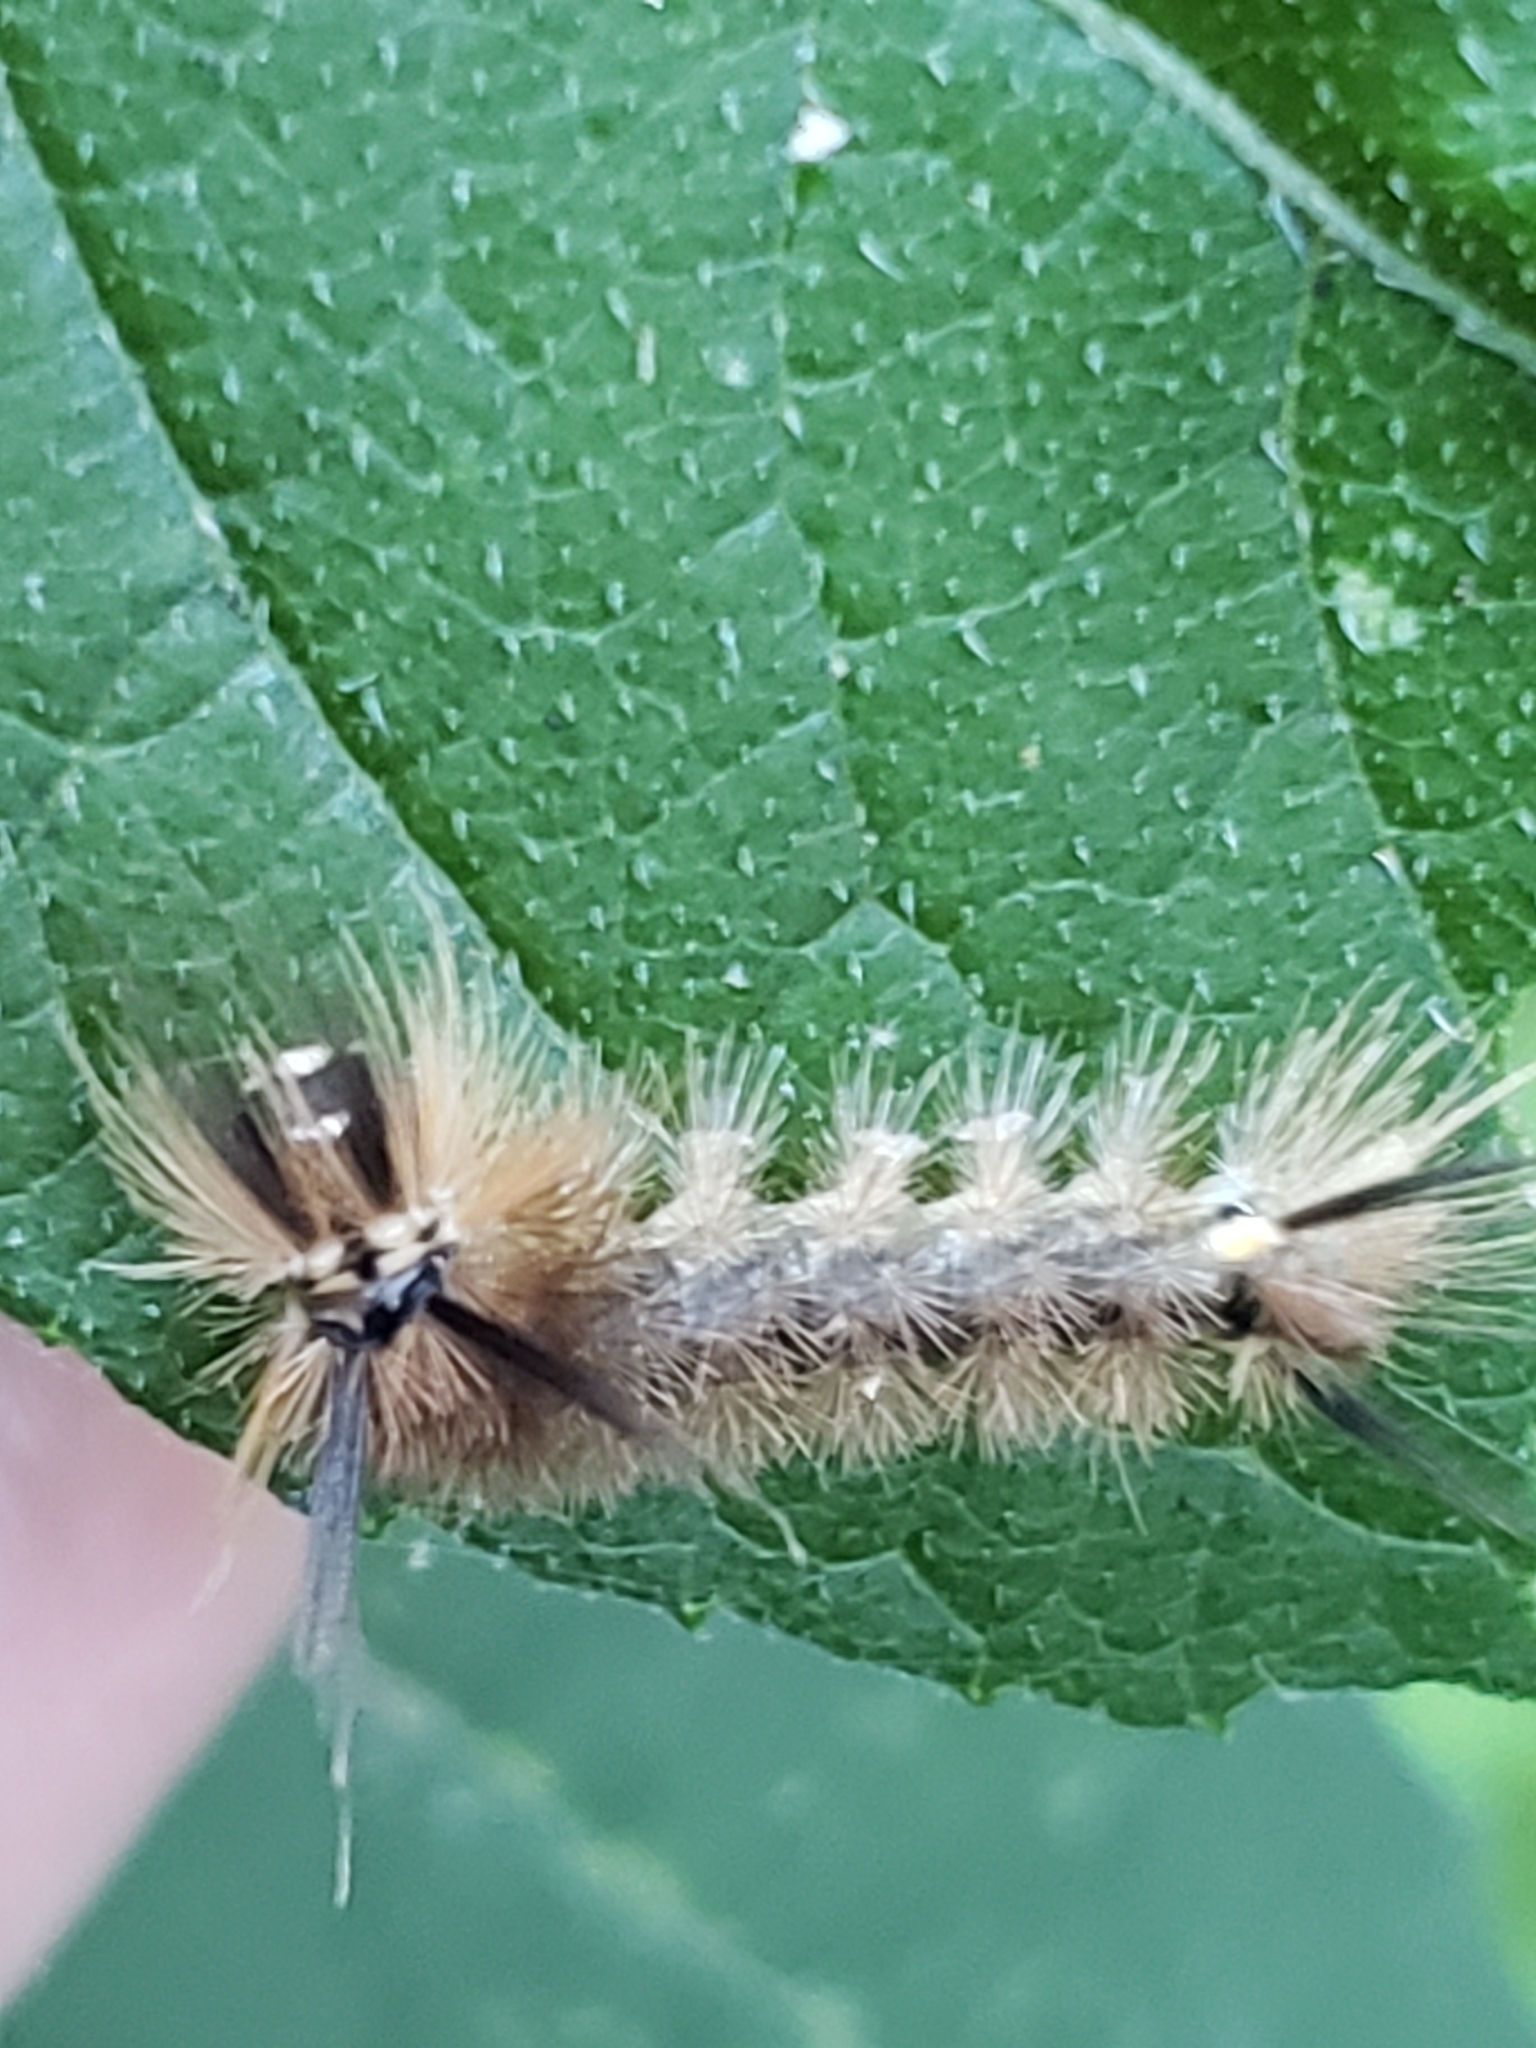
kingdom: Animalia
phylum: Arthropoda
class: Insecta
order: Lepidoptera
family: Erebidae
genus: Halysidota
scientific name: Halysidota tessellaris
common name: Banded tussock moth
